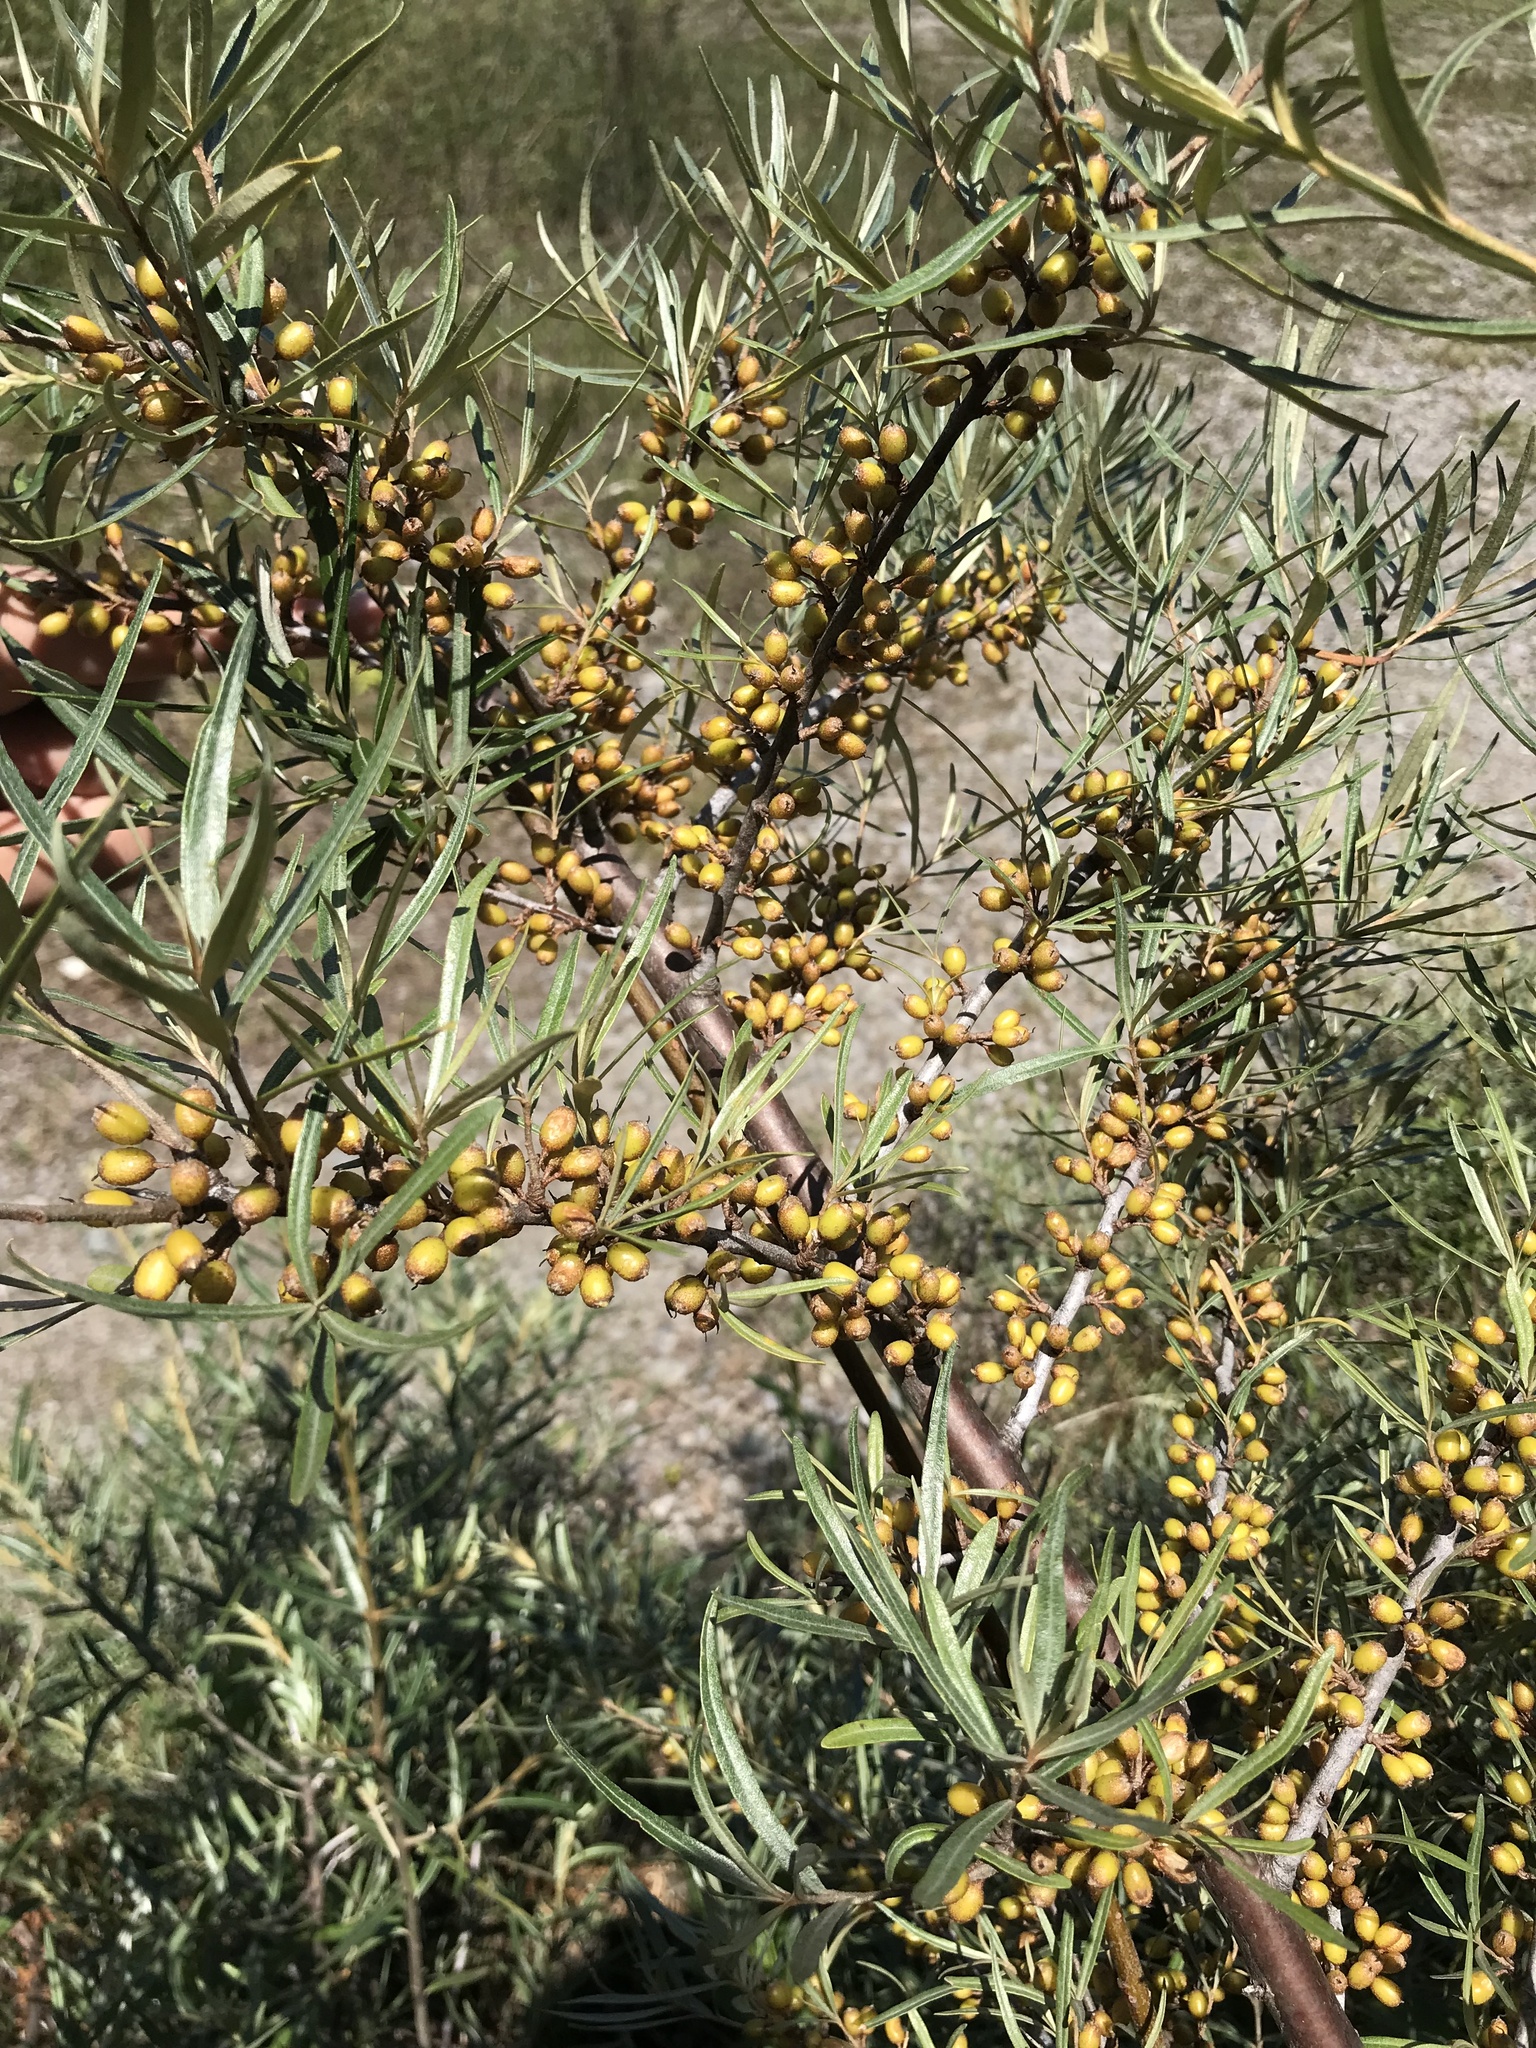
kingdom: Plantae
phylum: Tracheophyta
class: Magnoliopsida
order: Rosales
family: Elaeagnaceae
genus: Hippophae
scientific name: Hippophae rhamnoides
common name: Sea-buckthorn
